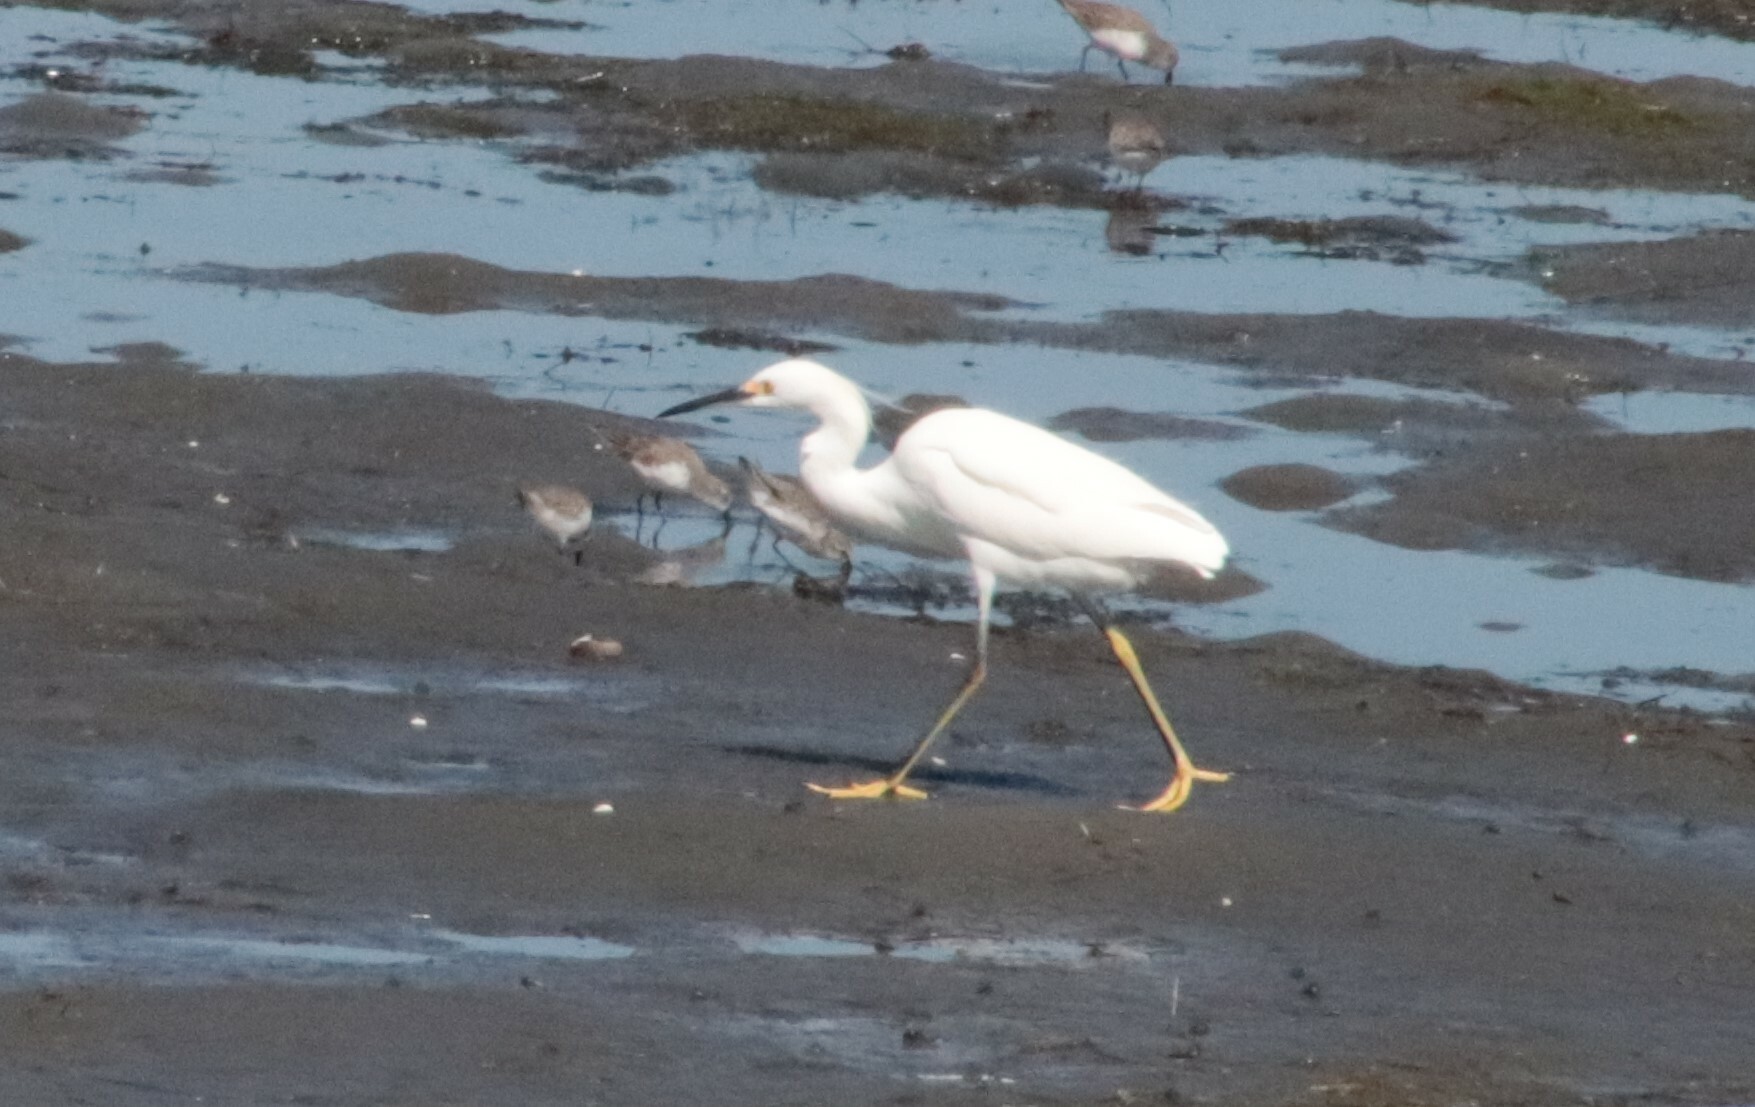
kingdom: Animalia
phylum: Chordata
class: Aves
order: Pelecaniformes
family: Ardeidae
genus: Egretta
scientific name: Egretta thula
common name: Snowy egret
